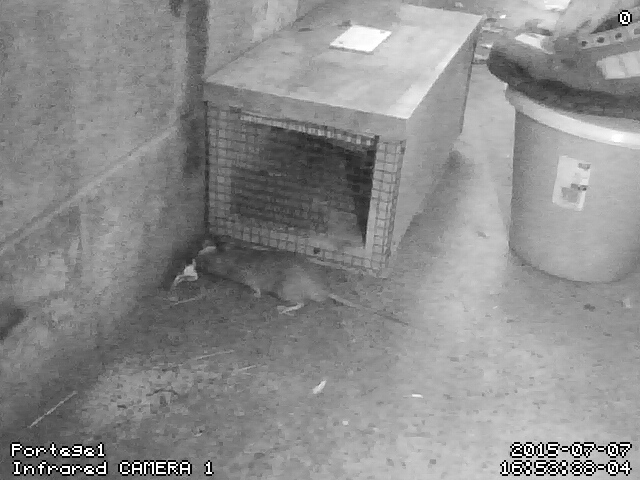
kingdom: Animalia
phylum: Chordata
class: Mammalia
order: Rodentia
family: Muridae
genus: Rattus
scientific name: Rattus norvegicus
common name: Brown rat
